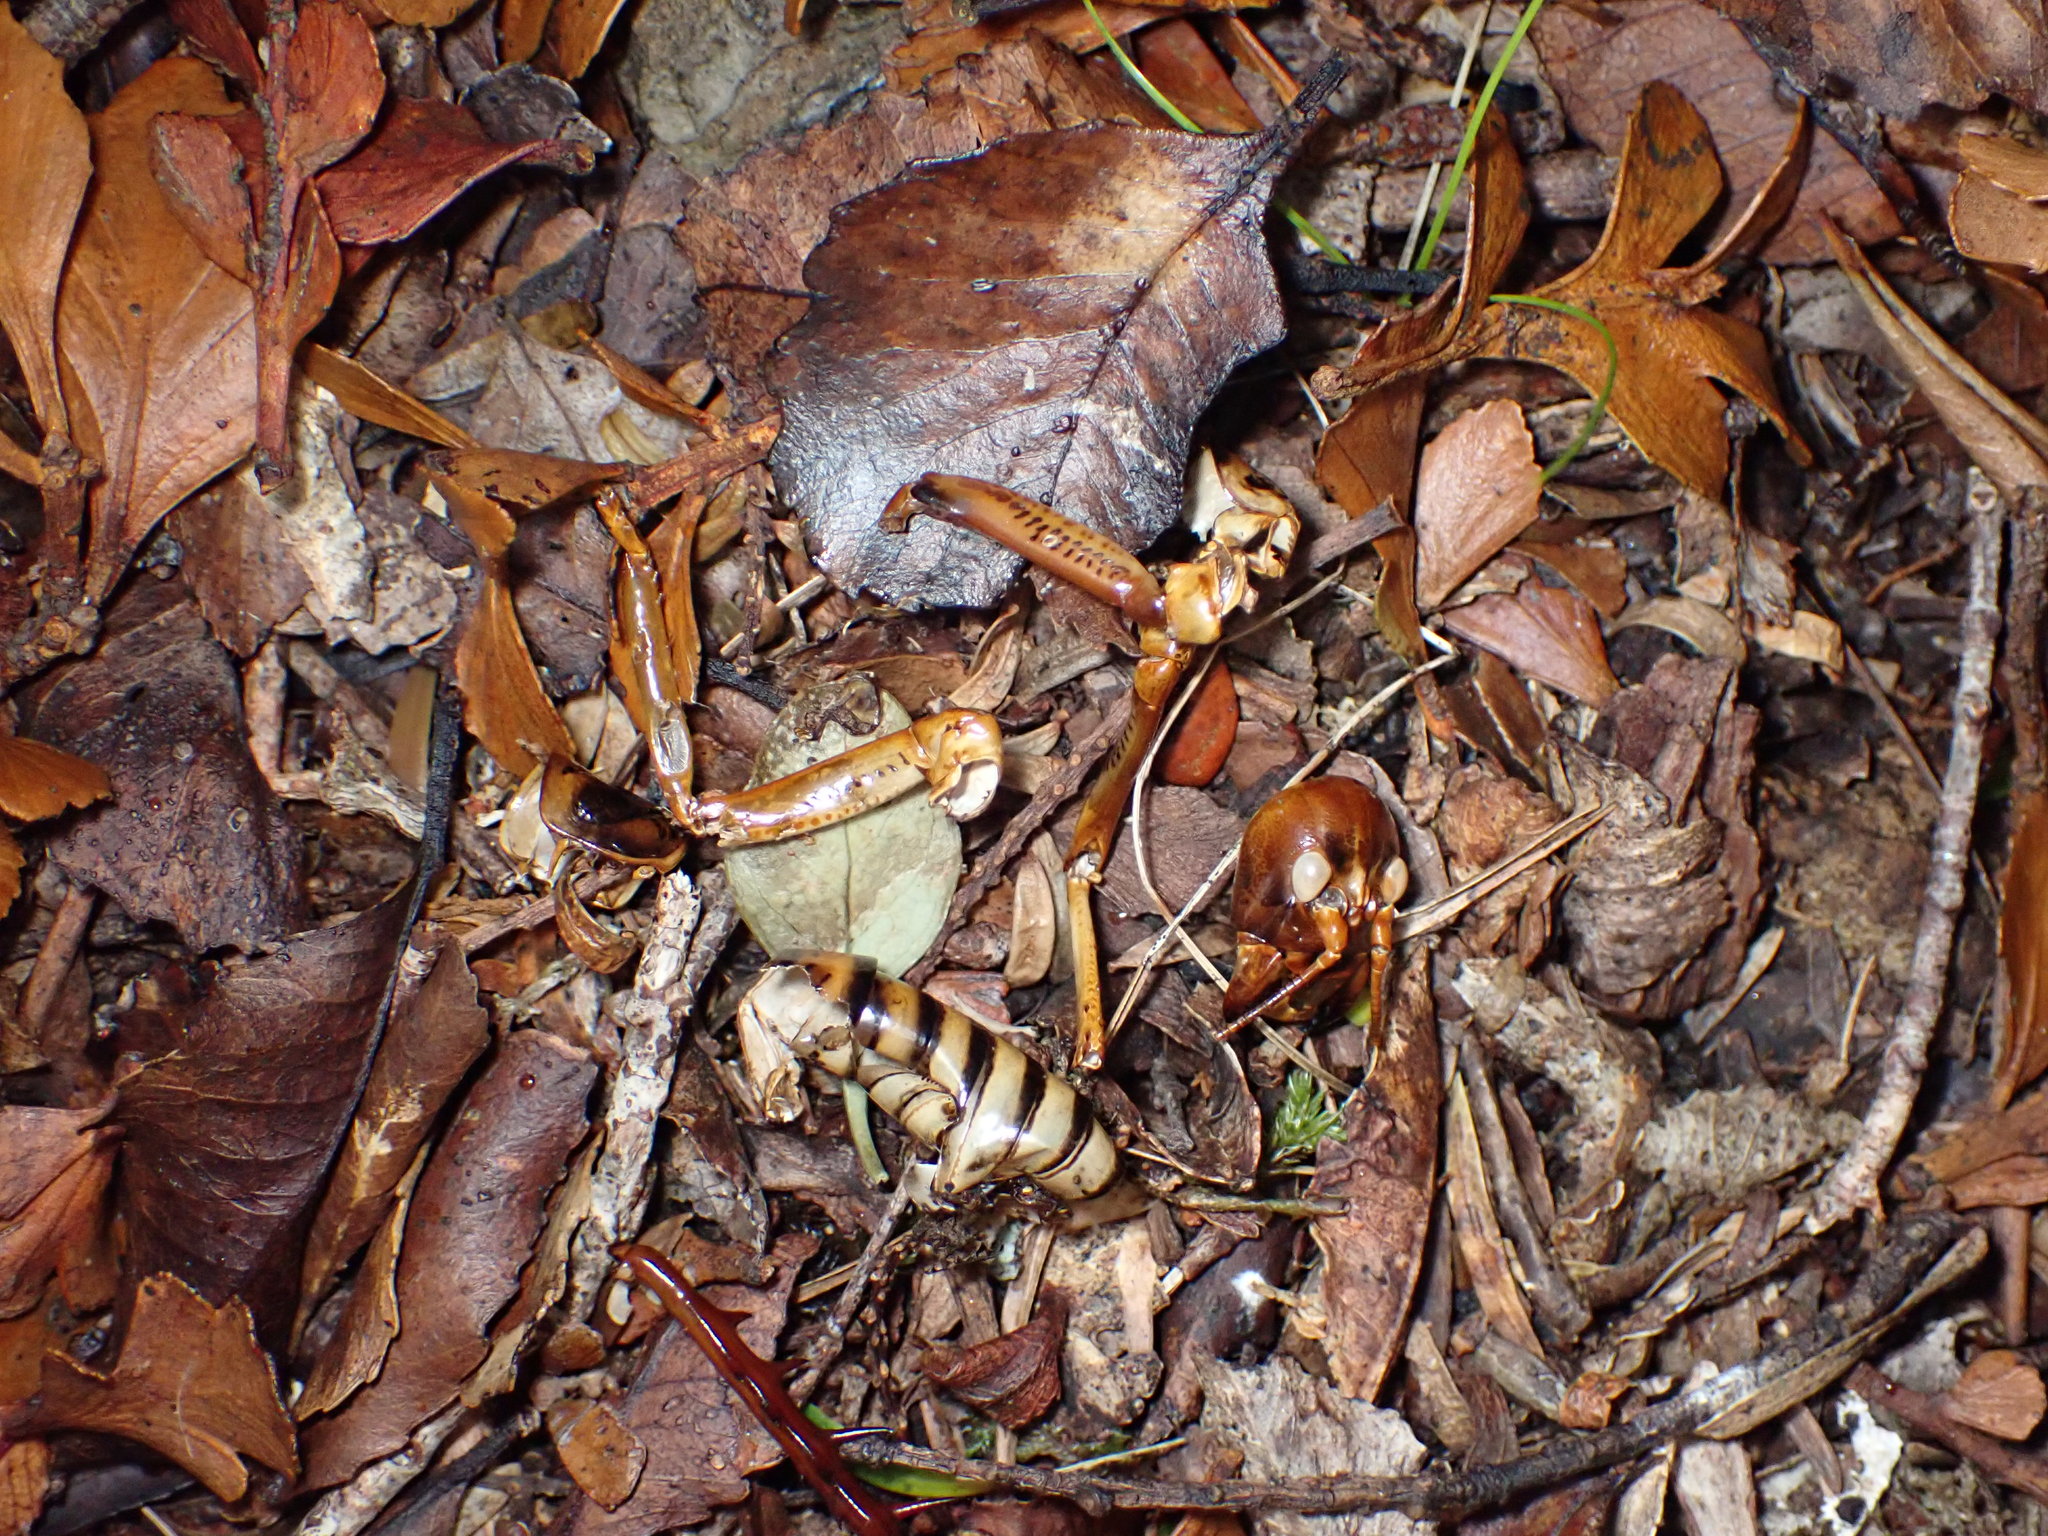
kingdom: Animalia
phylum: Arthropoda
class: Insecta
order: Orthoptera
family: Anostostomatidae
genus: Hemideina
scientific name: Hemideina crassidens
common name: Wellington tree weta
